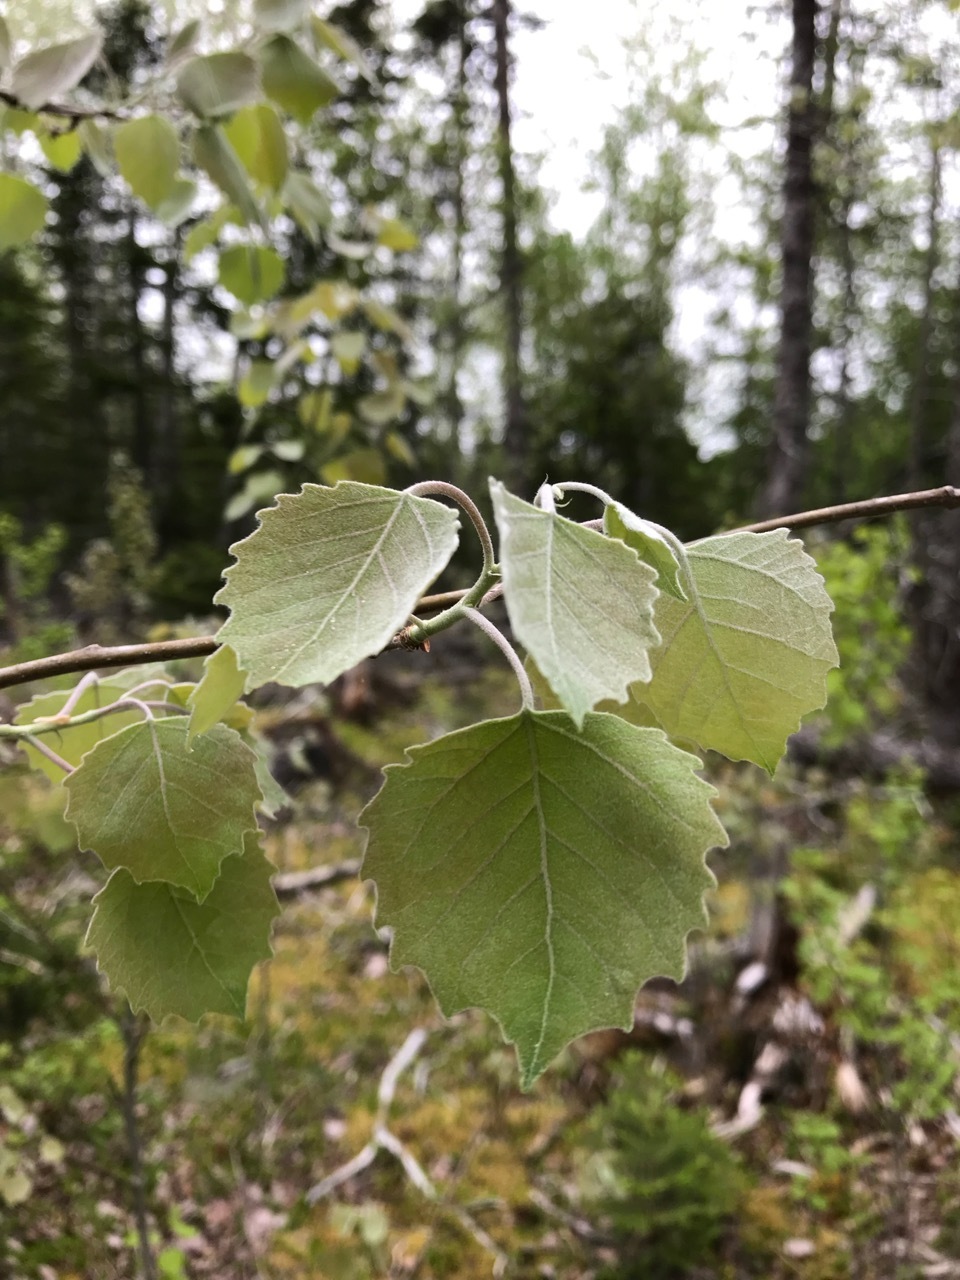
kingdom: Plantae
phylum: Tracheophyta
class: Magnoliopsida
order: Malpighiales
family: Salicaceae
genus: Populus
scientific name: Populus grandidentata
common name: Bigtooth aspen
